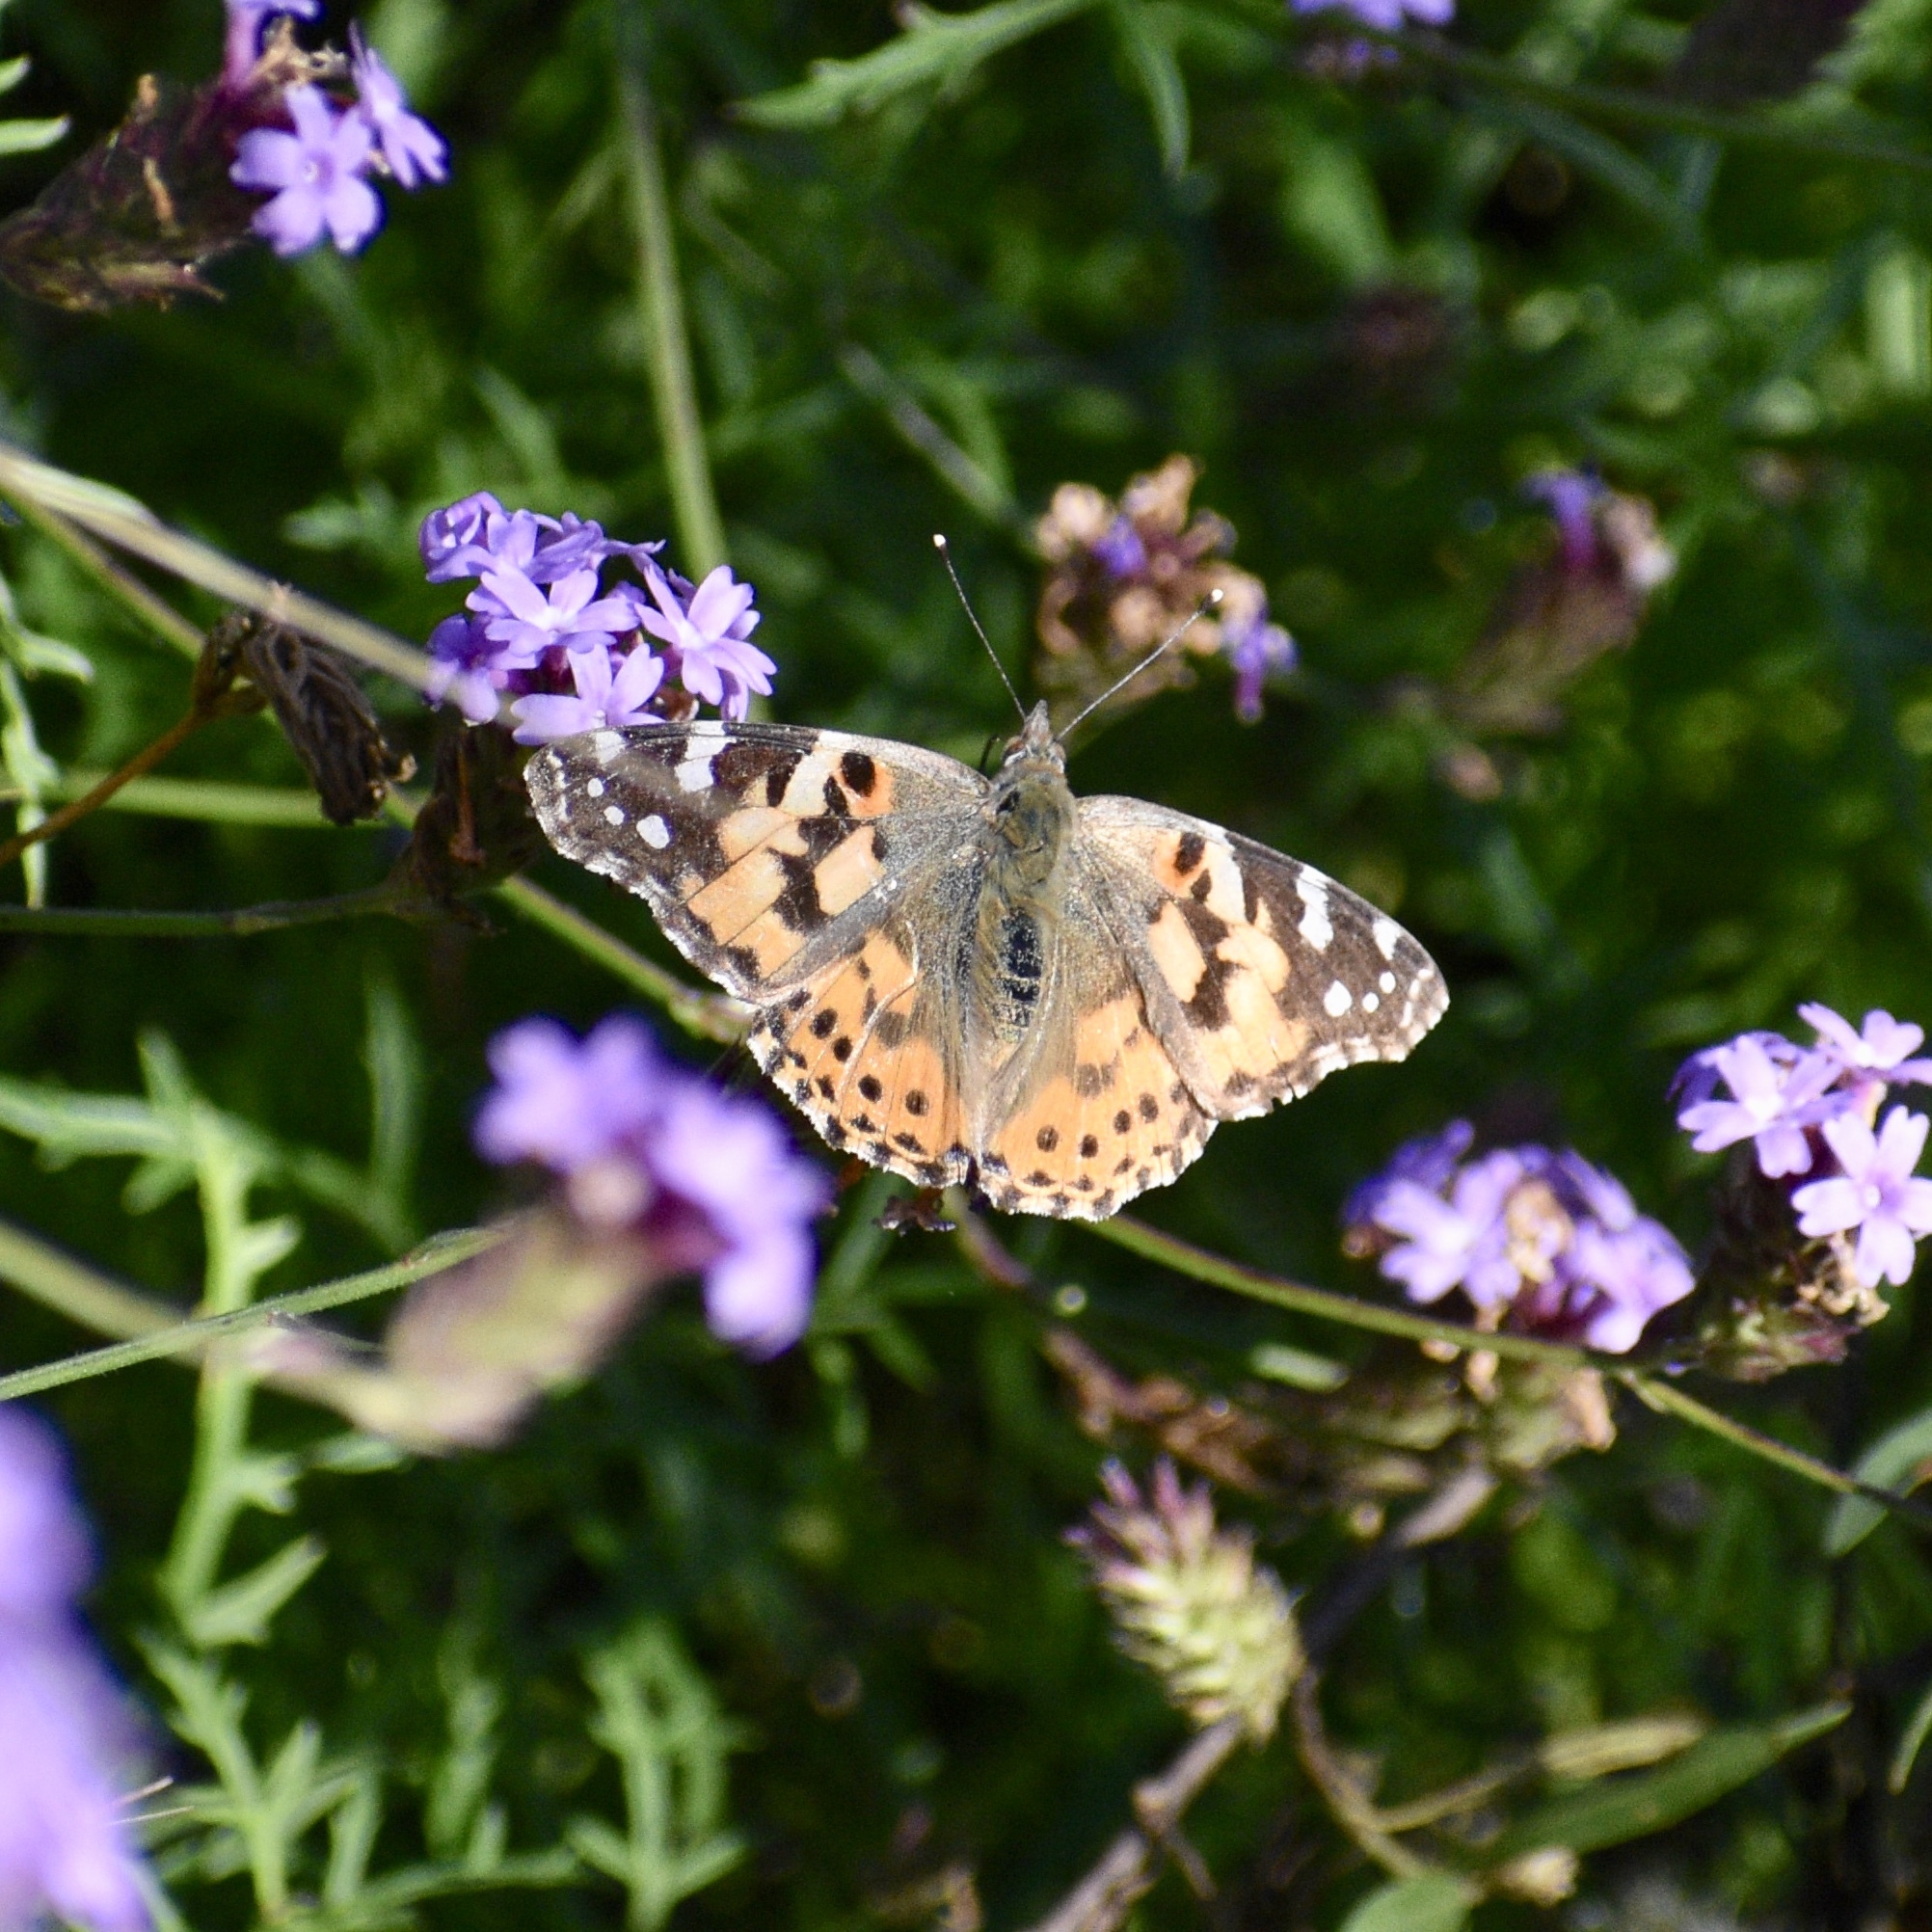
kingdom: Animalia
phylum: Arthropoda
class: Insecta
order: Lepidoptera
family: Nymphalidae
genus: Vanessa
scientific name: Vanessa cardui
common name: Painted lady
